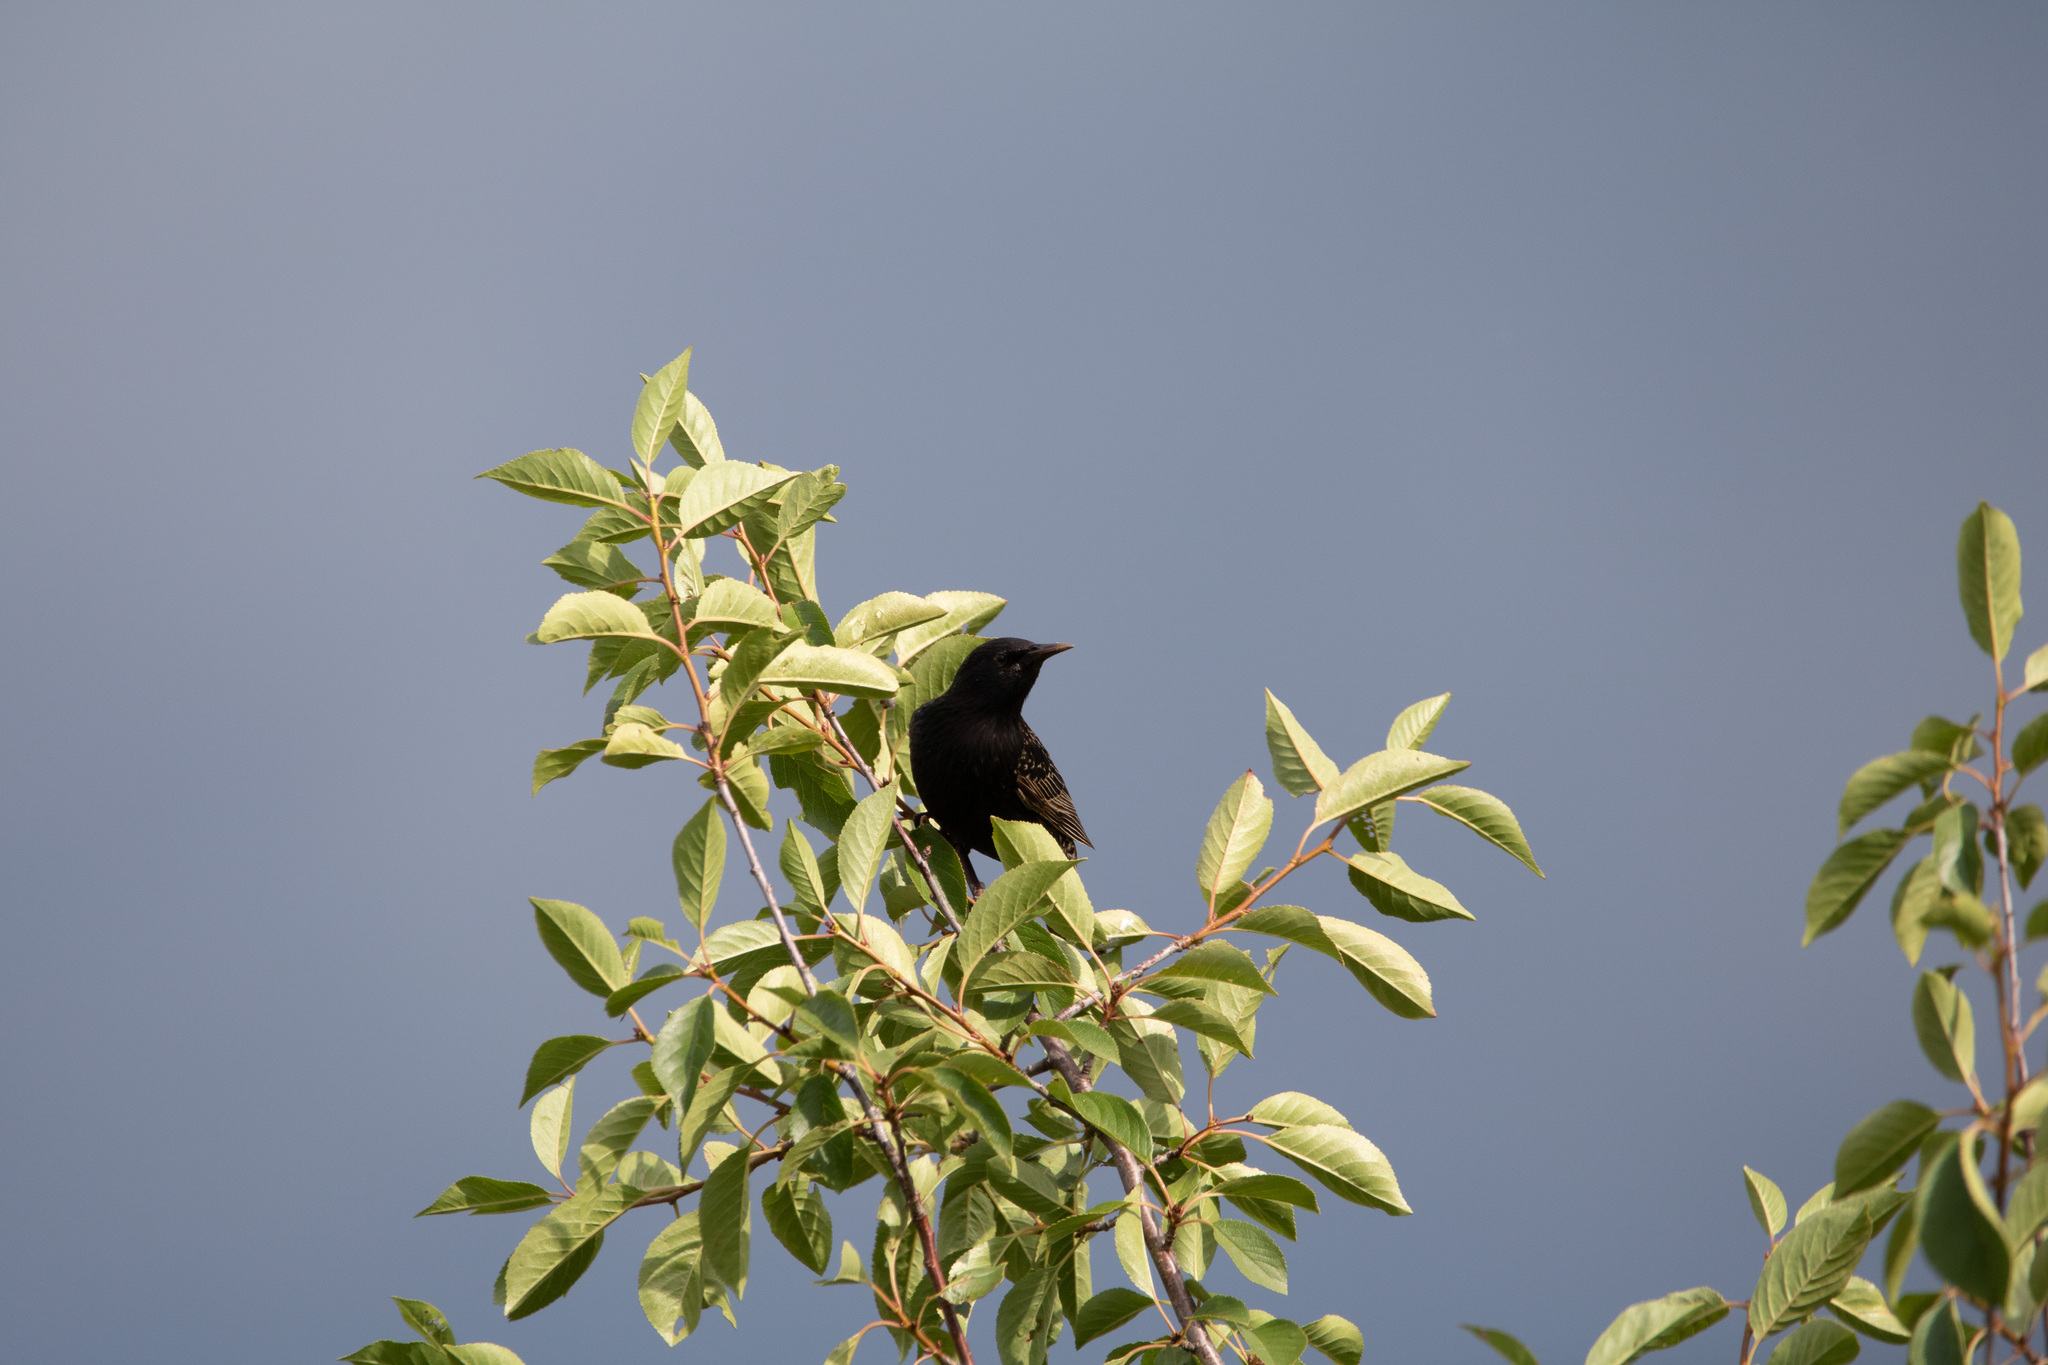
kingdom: Animalia
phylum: Chordata
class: Aves
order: Passeriformes
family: Sturnidae
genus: Sturnus
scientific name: Sturnus vulgaris
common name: Common starling
